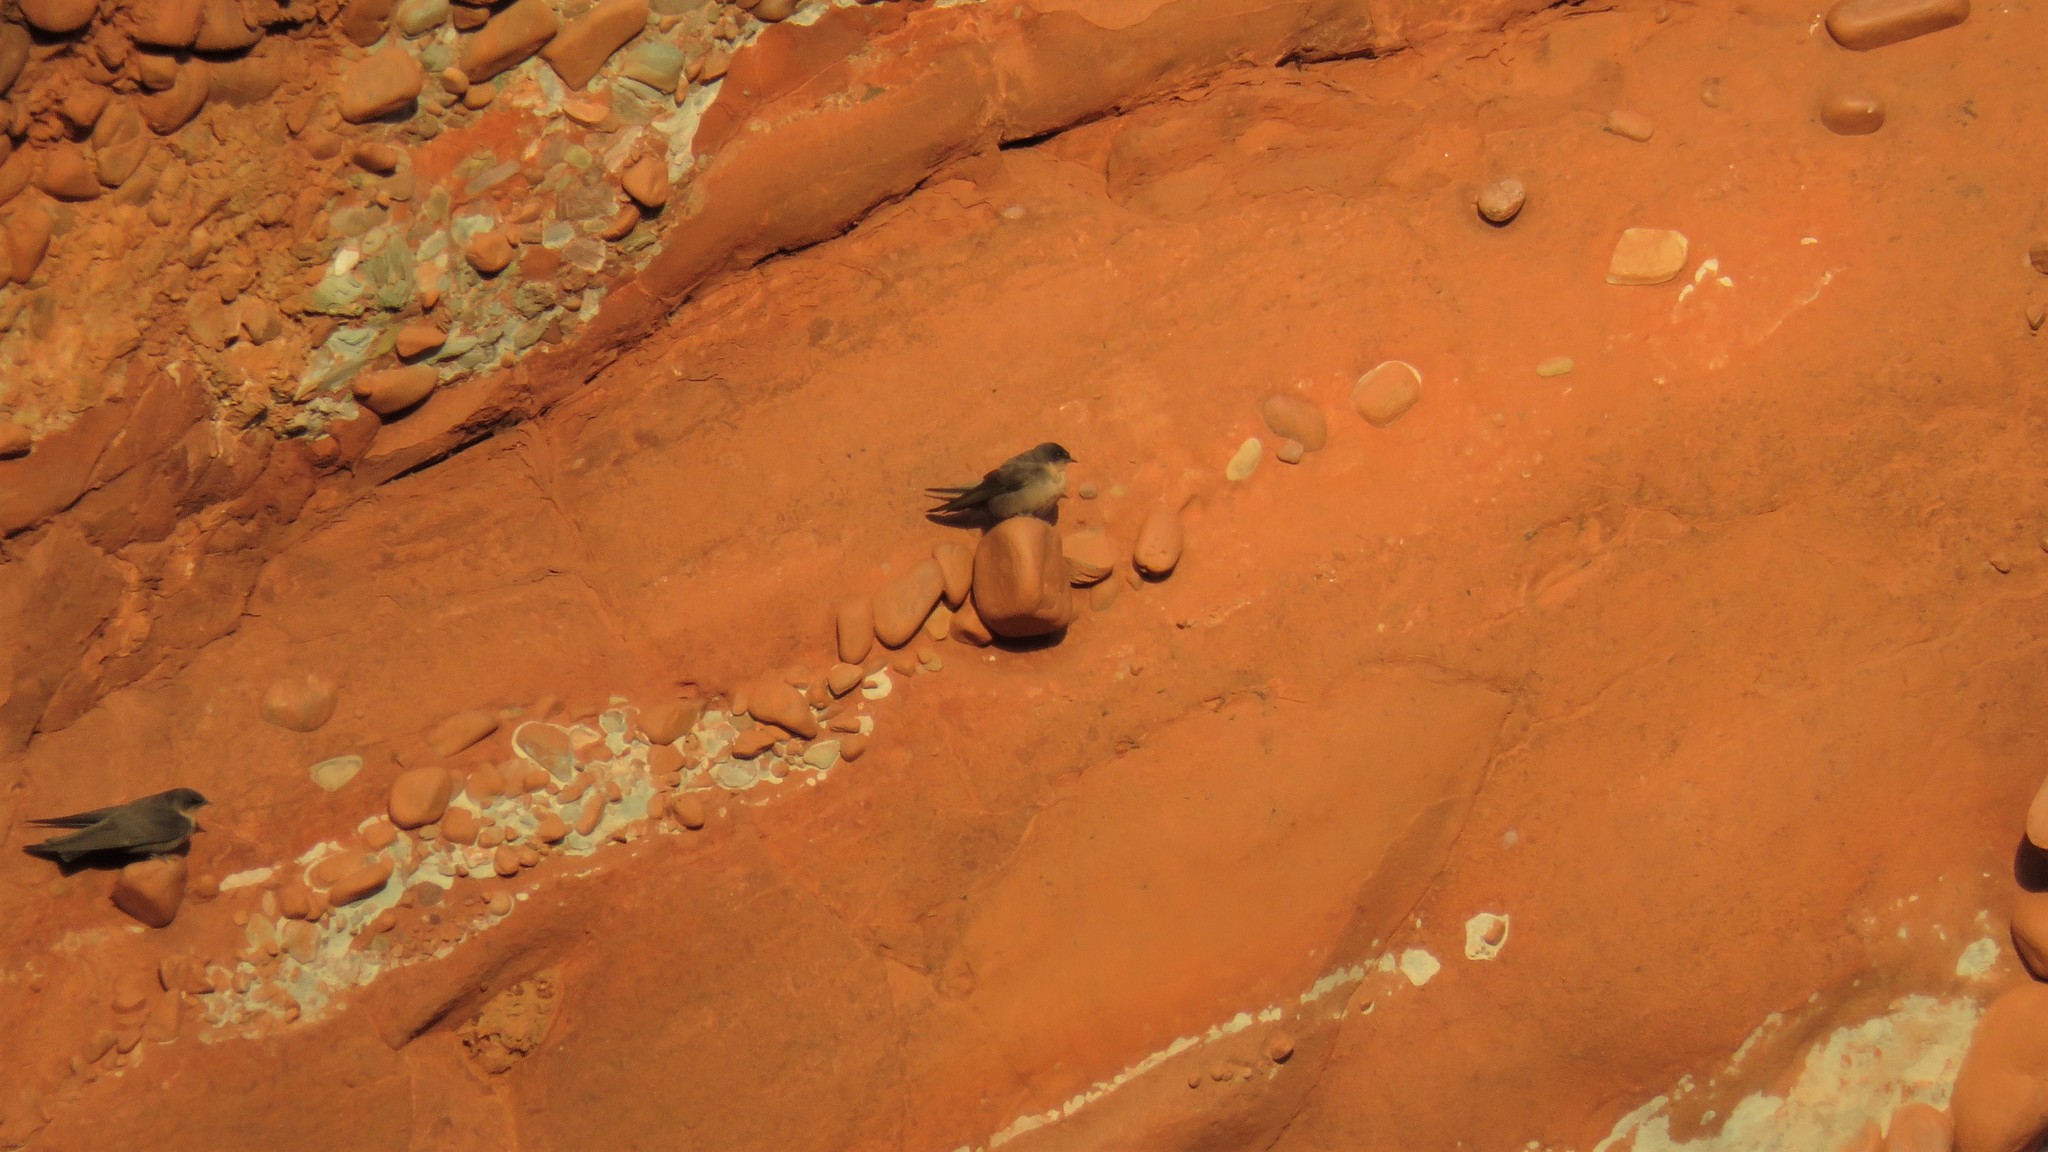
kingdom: Animalia
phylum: Chordata
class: Aves
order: Passeriformes
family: Hirundinidae
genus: Ptyonoprogne
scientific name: Ptyonoprogne fuligula
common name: Rock martin
